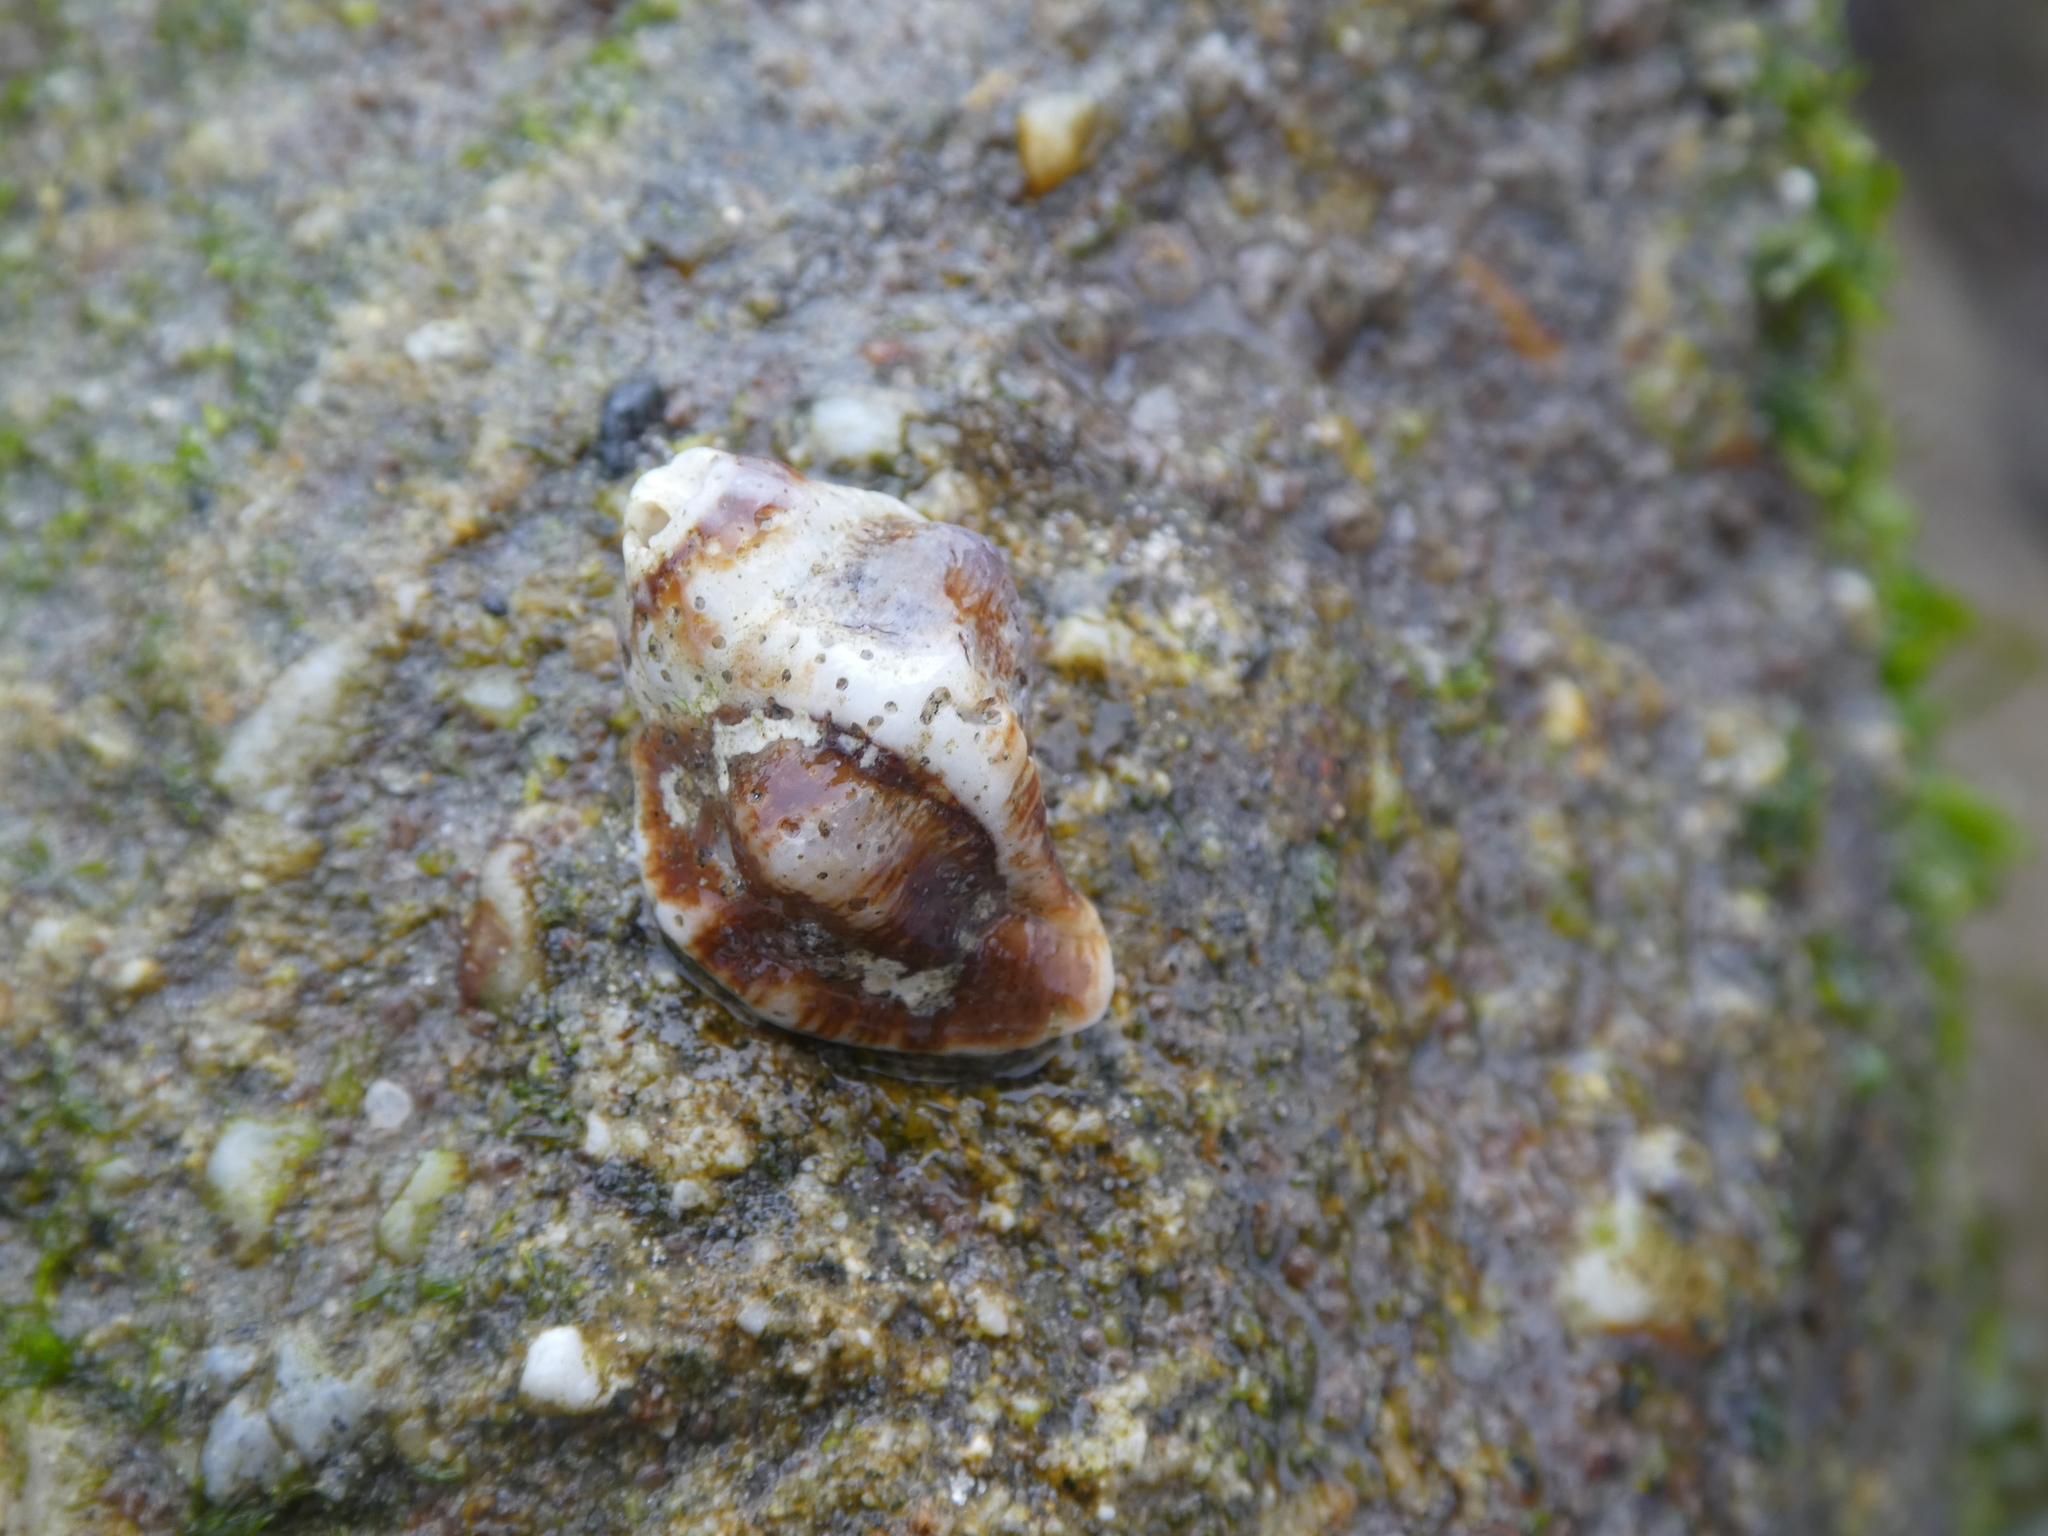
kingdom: Animalia
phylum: Mollusca
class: Gastropoda
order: Neogastropoda
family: Muricidae
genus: Ceratostoma
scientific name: Ceratostoma nuttalli
